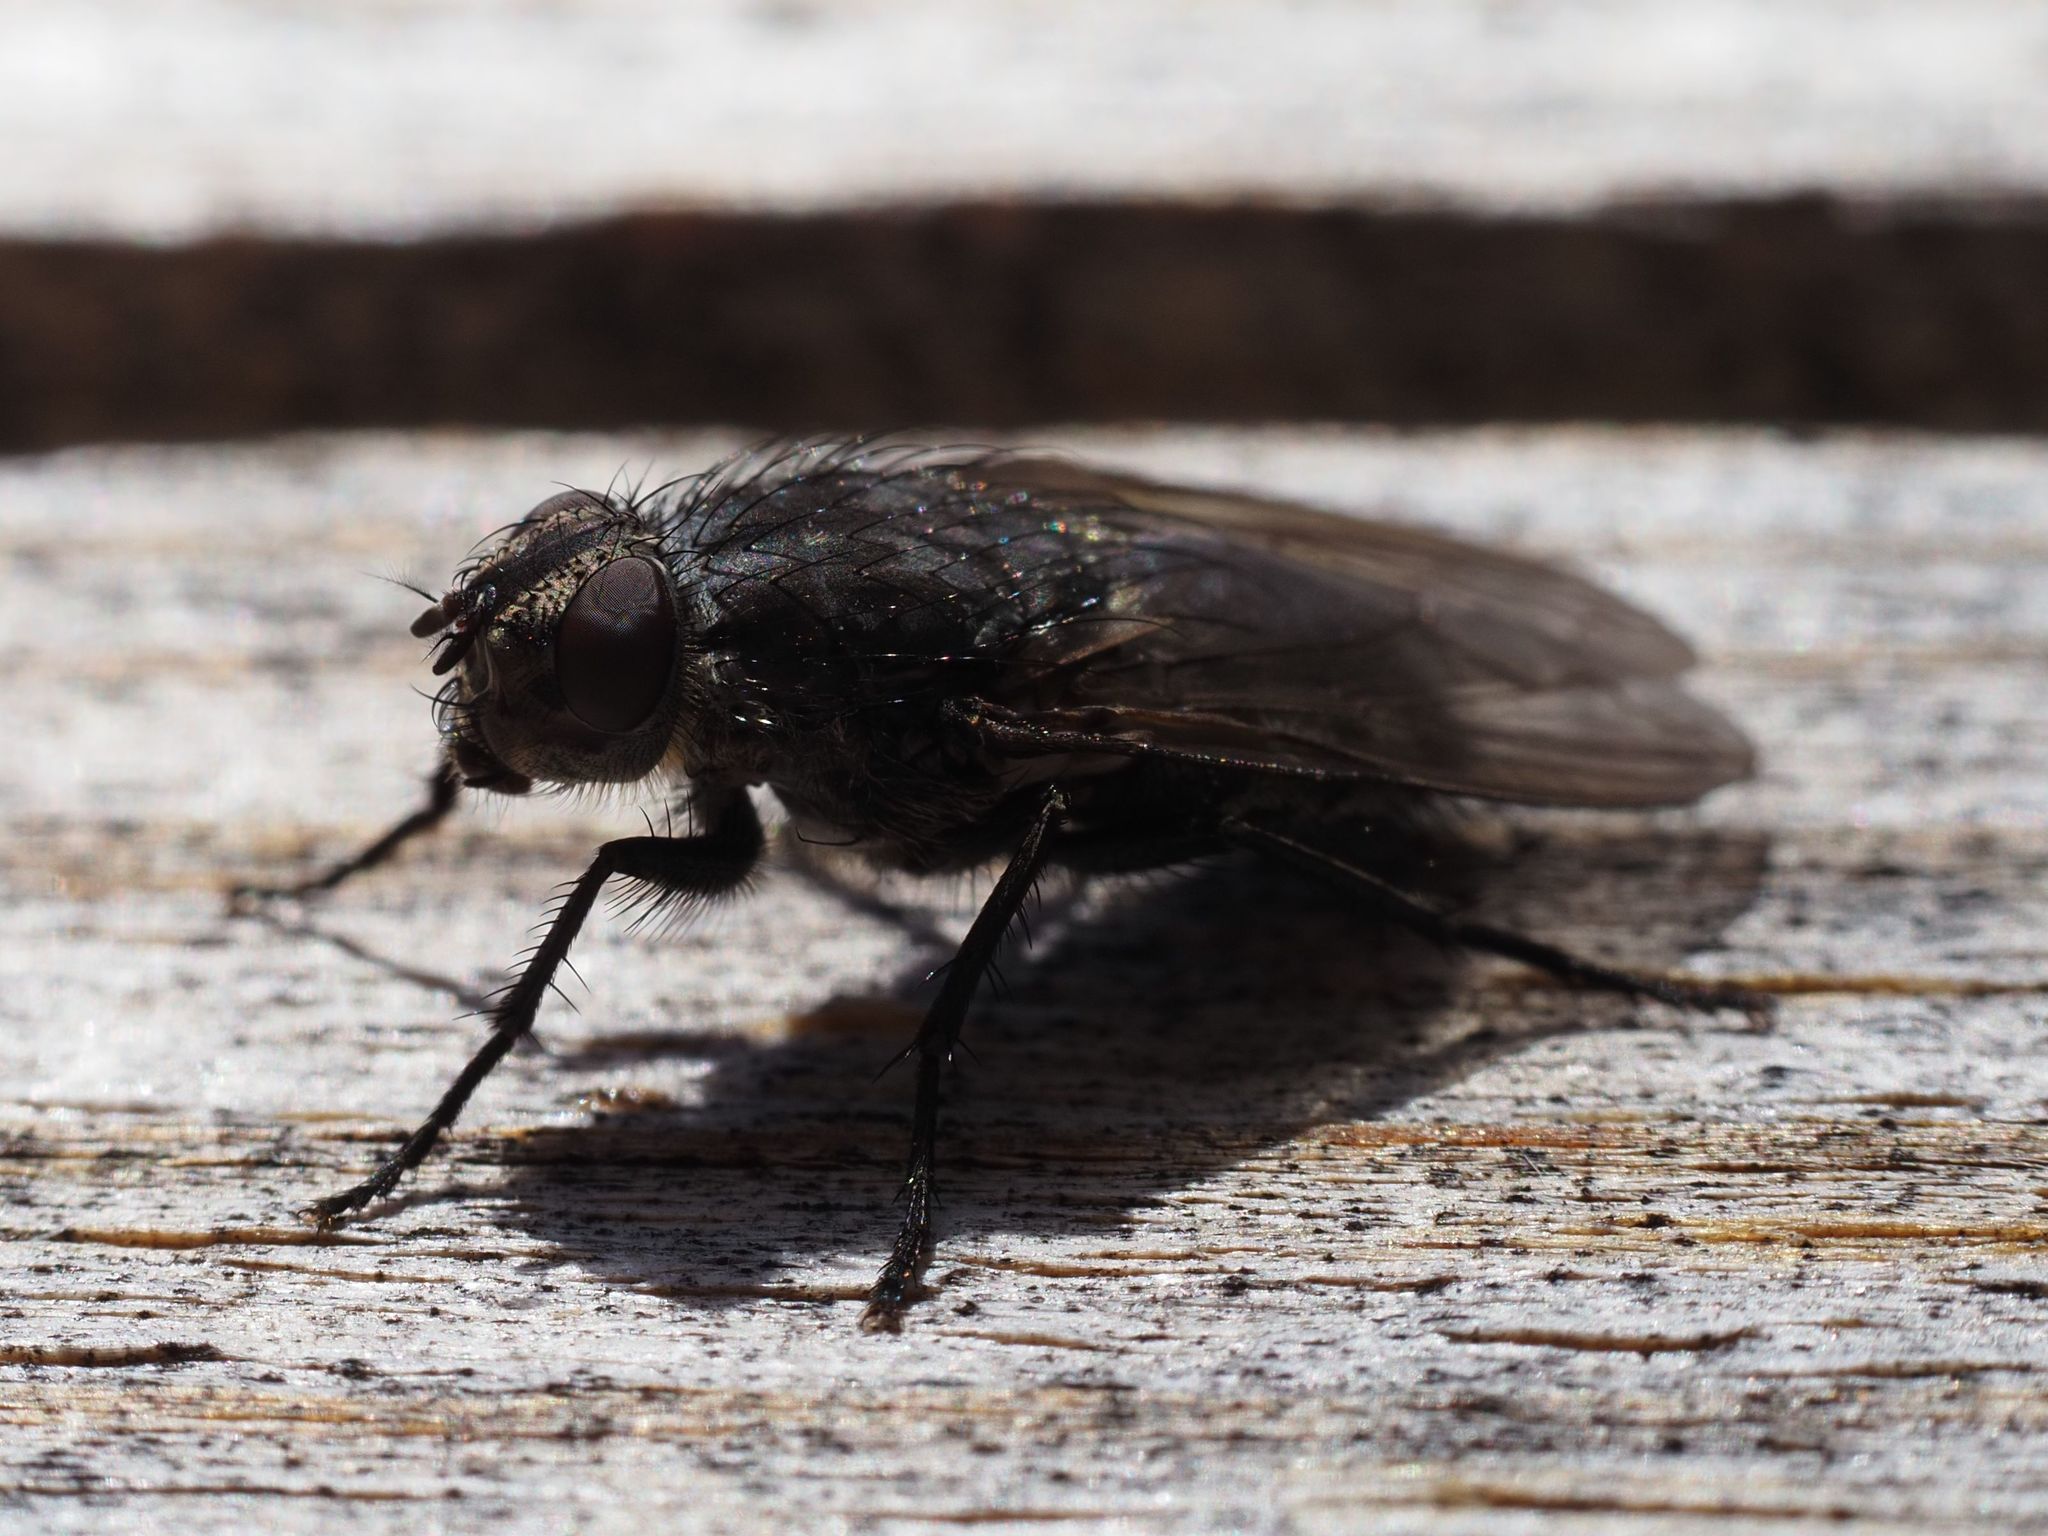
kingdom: Animalia
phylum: Arthropoda
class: Insecta
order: Diptera
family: Polleniidae
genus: Pollenia
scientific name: Pollenia vagabunda
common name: Vagabund cluster fly
